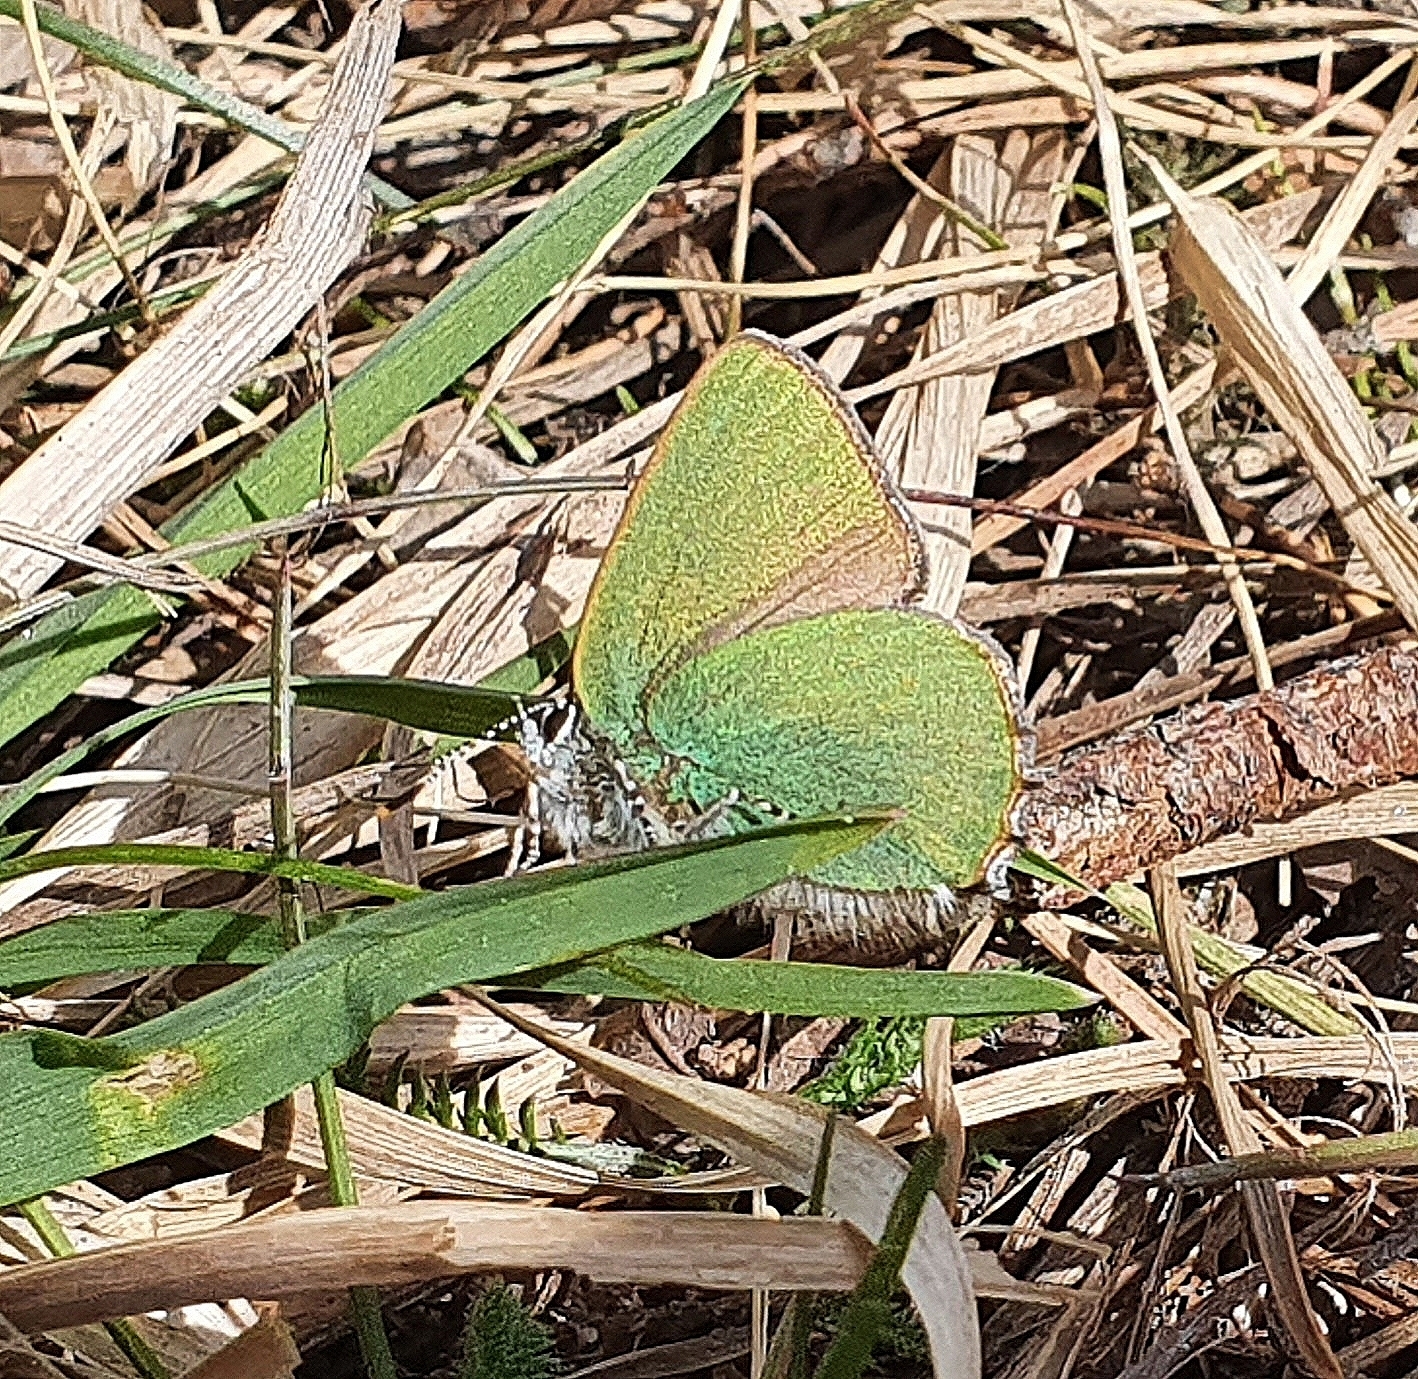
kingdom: Animalia
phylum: Arthropoda
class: Insecta
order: Lepidoptera
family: Lycaenidae
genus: Callophrys
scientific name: Callophrys rubi
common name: Green hairstreak
